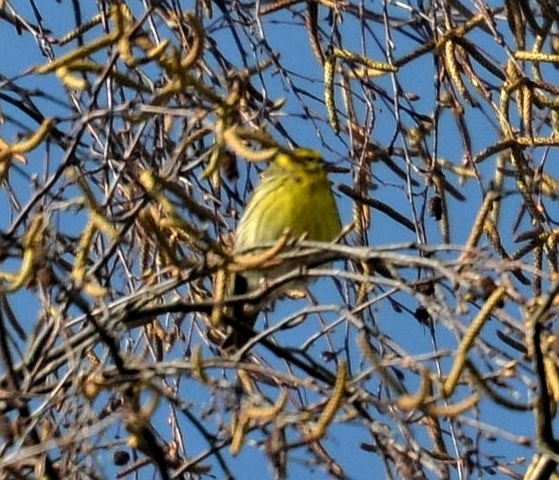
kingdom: Animalia
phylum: Chordata
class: Aves
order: Passeriformes
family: Fringillidae
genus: Serinus
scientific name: Serinus serinus
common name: European serin
